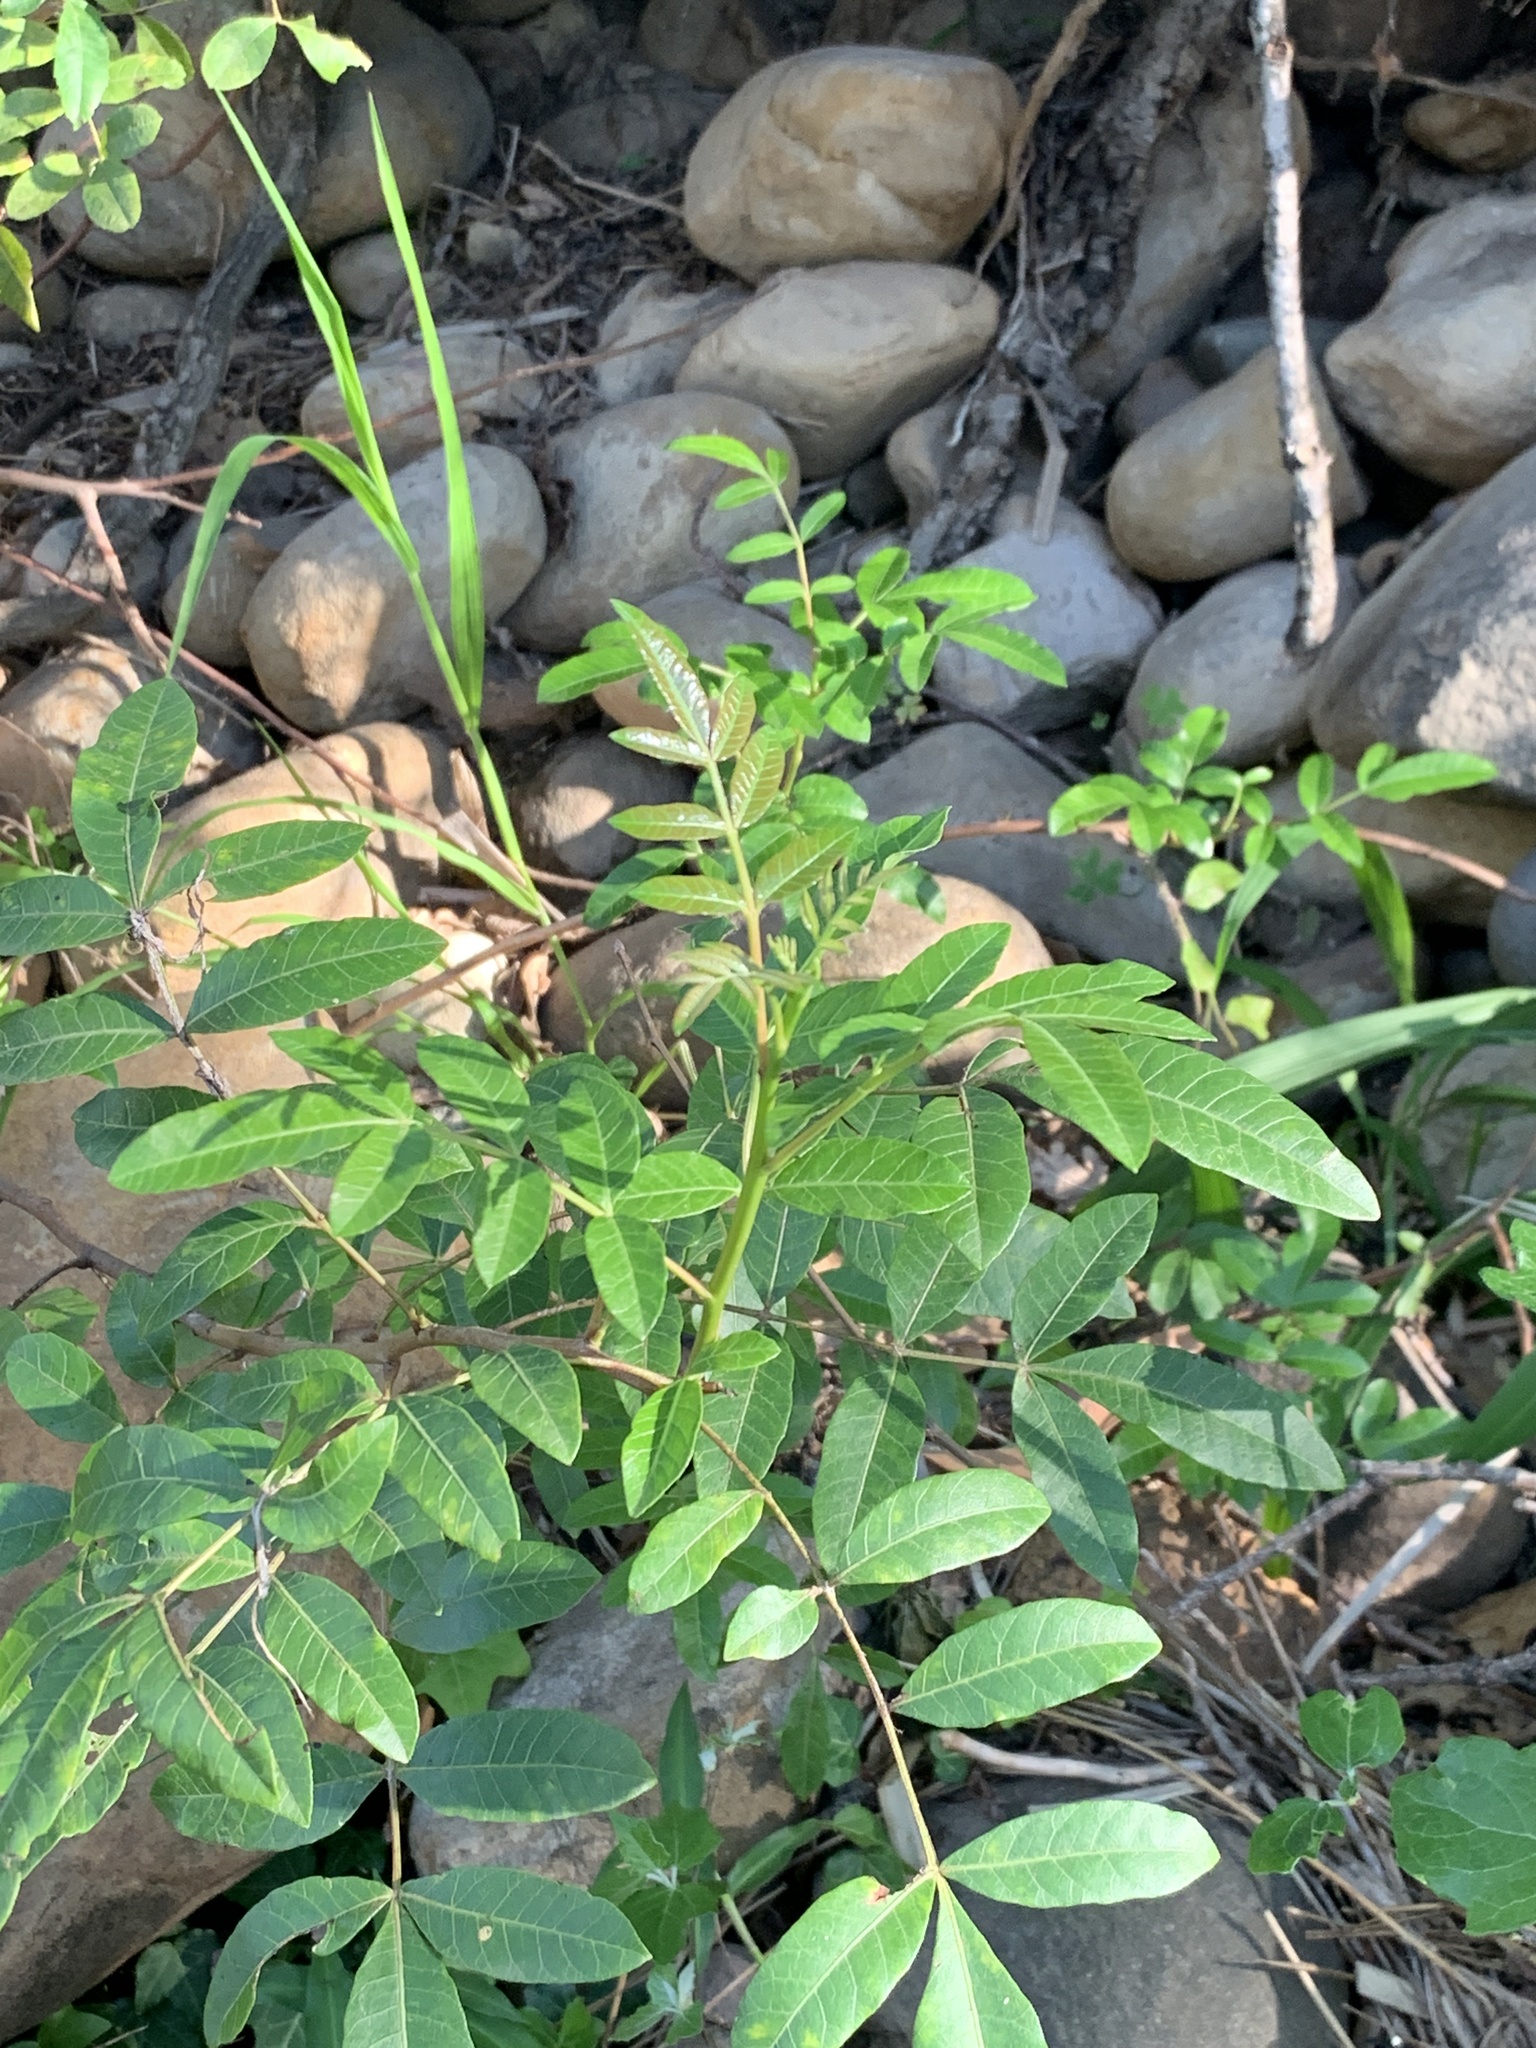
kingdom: Plantae
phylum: Tracheophyta
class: Magnoliopsida
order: Sapindales
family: Anacardiaceae
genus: Schinus
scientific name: Schinus terebinthifolia
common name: Brazilian peppertree
